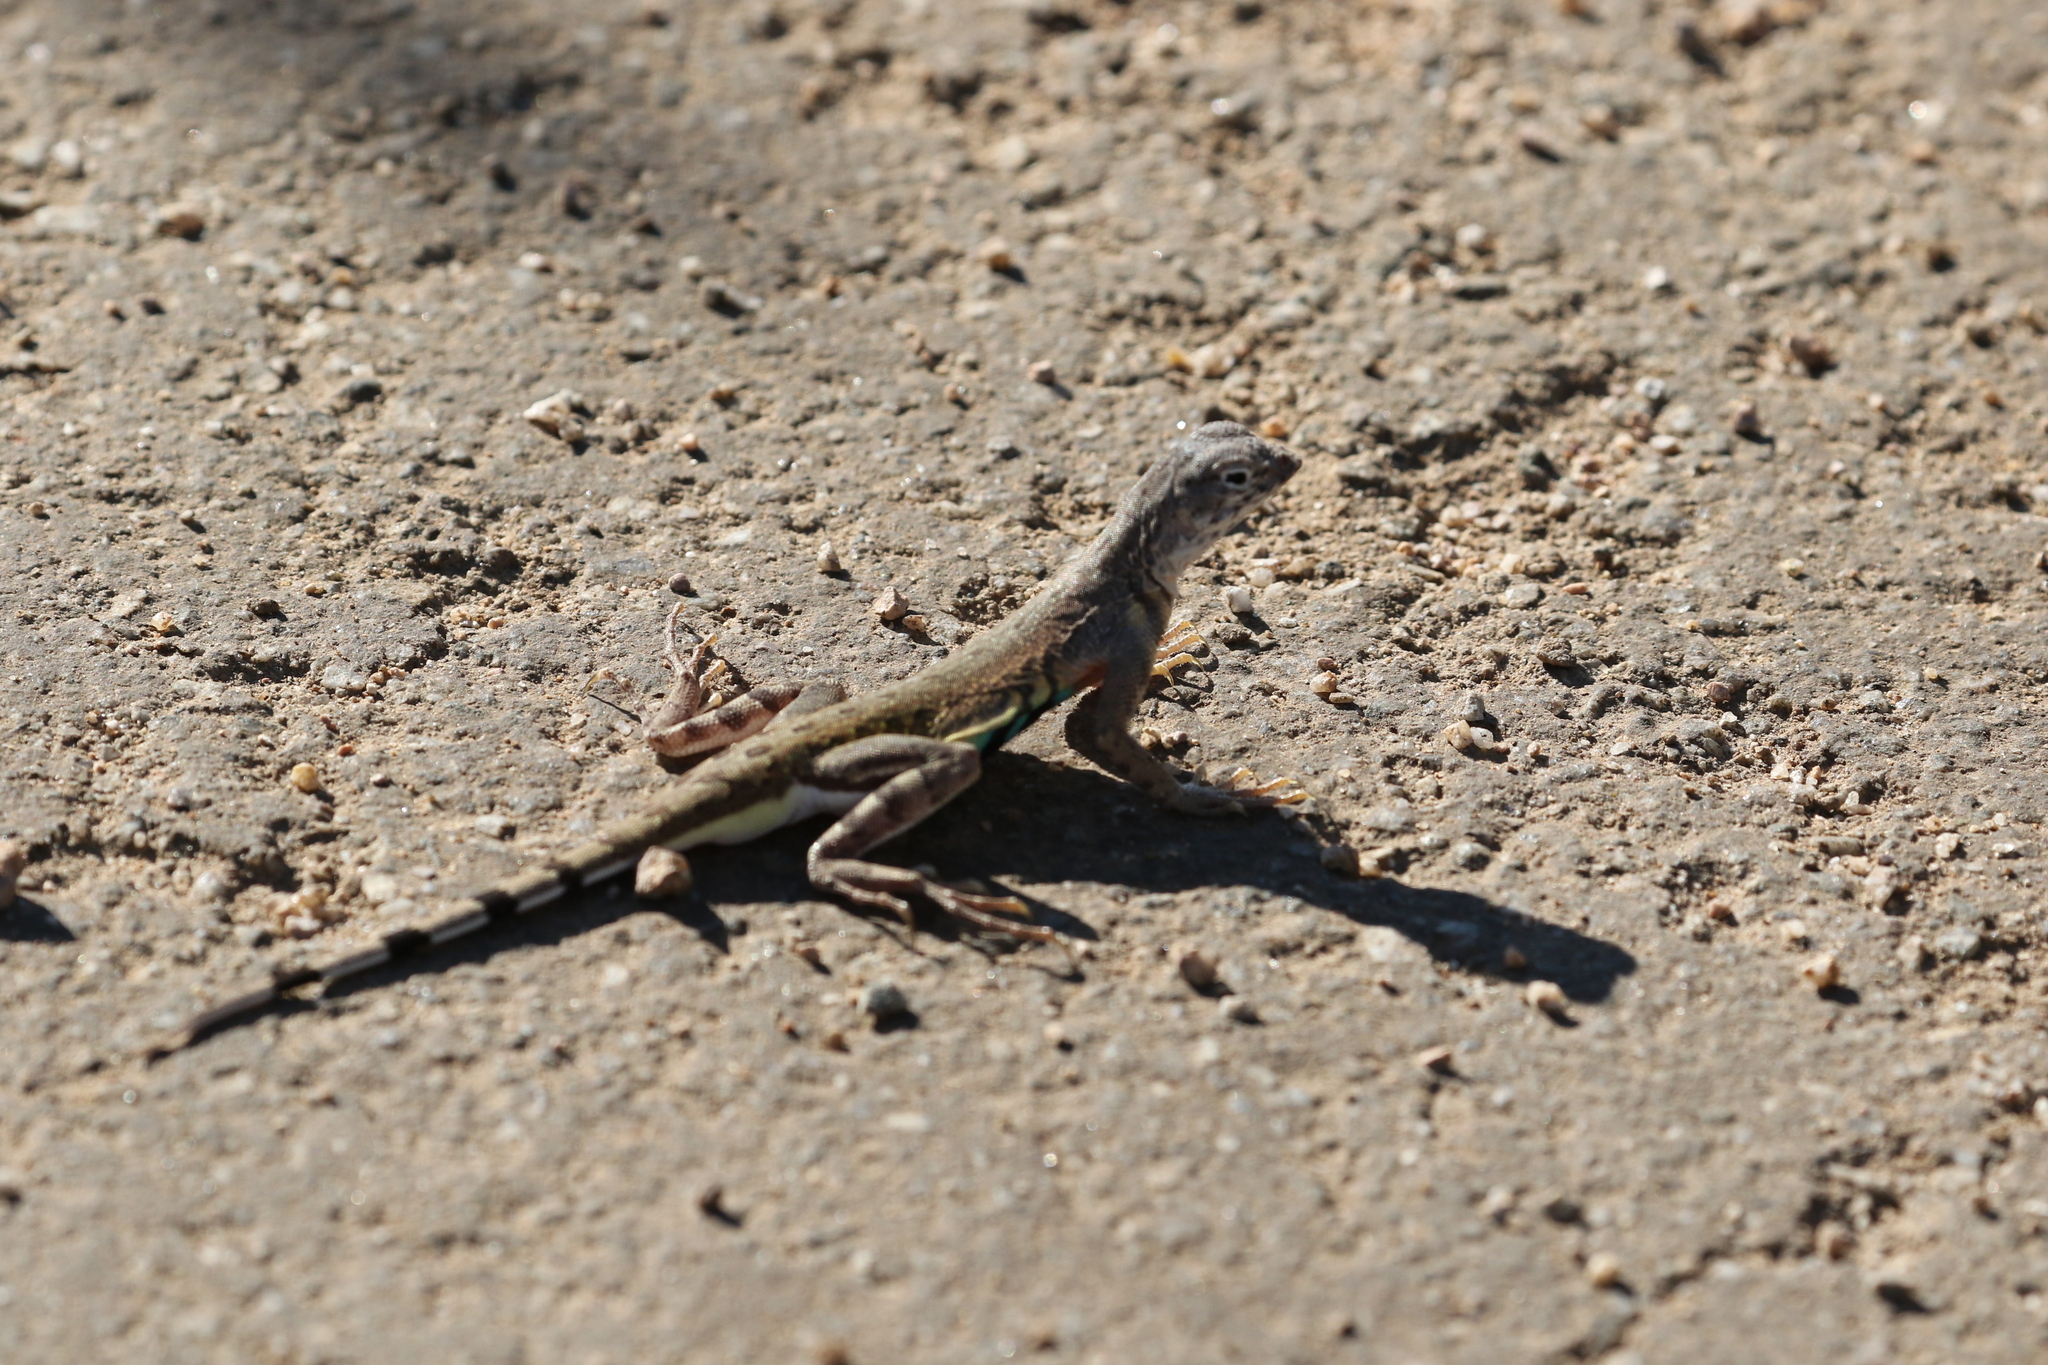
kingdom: Animalia
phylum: Chordata
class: Squamata
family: Phrynosomatidae
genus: Callisaurus
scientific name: Callisaurus draconoides
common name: Zebra-tailed lizard
